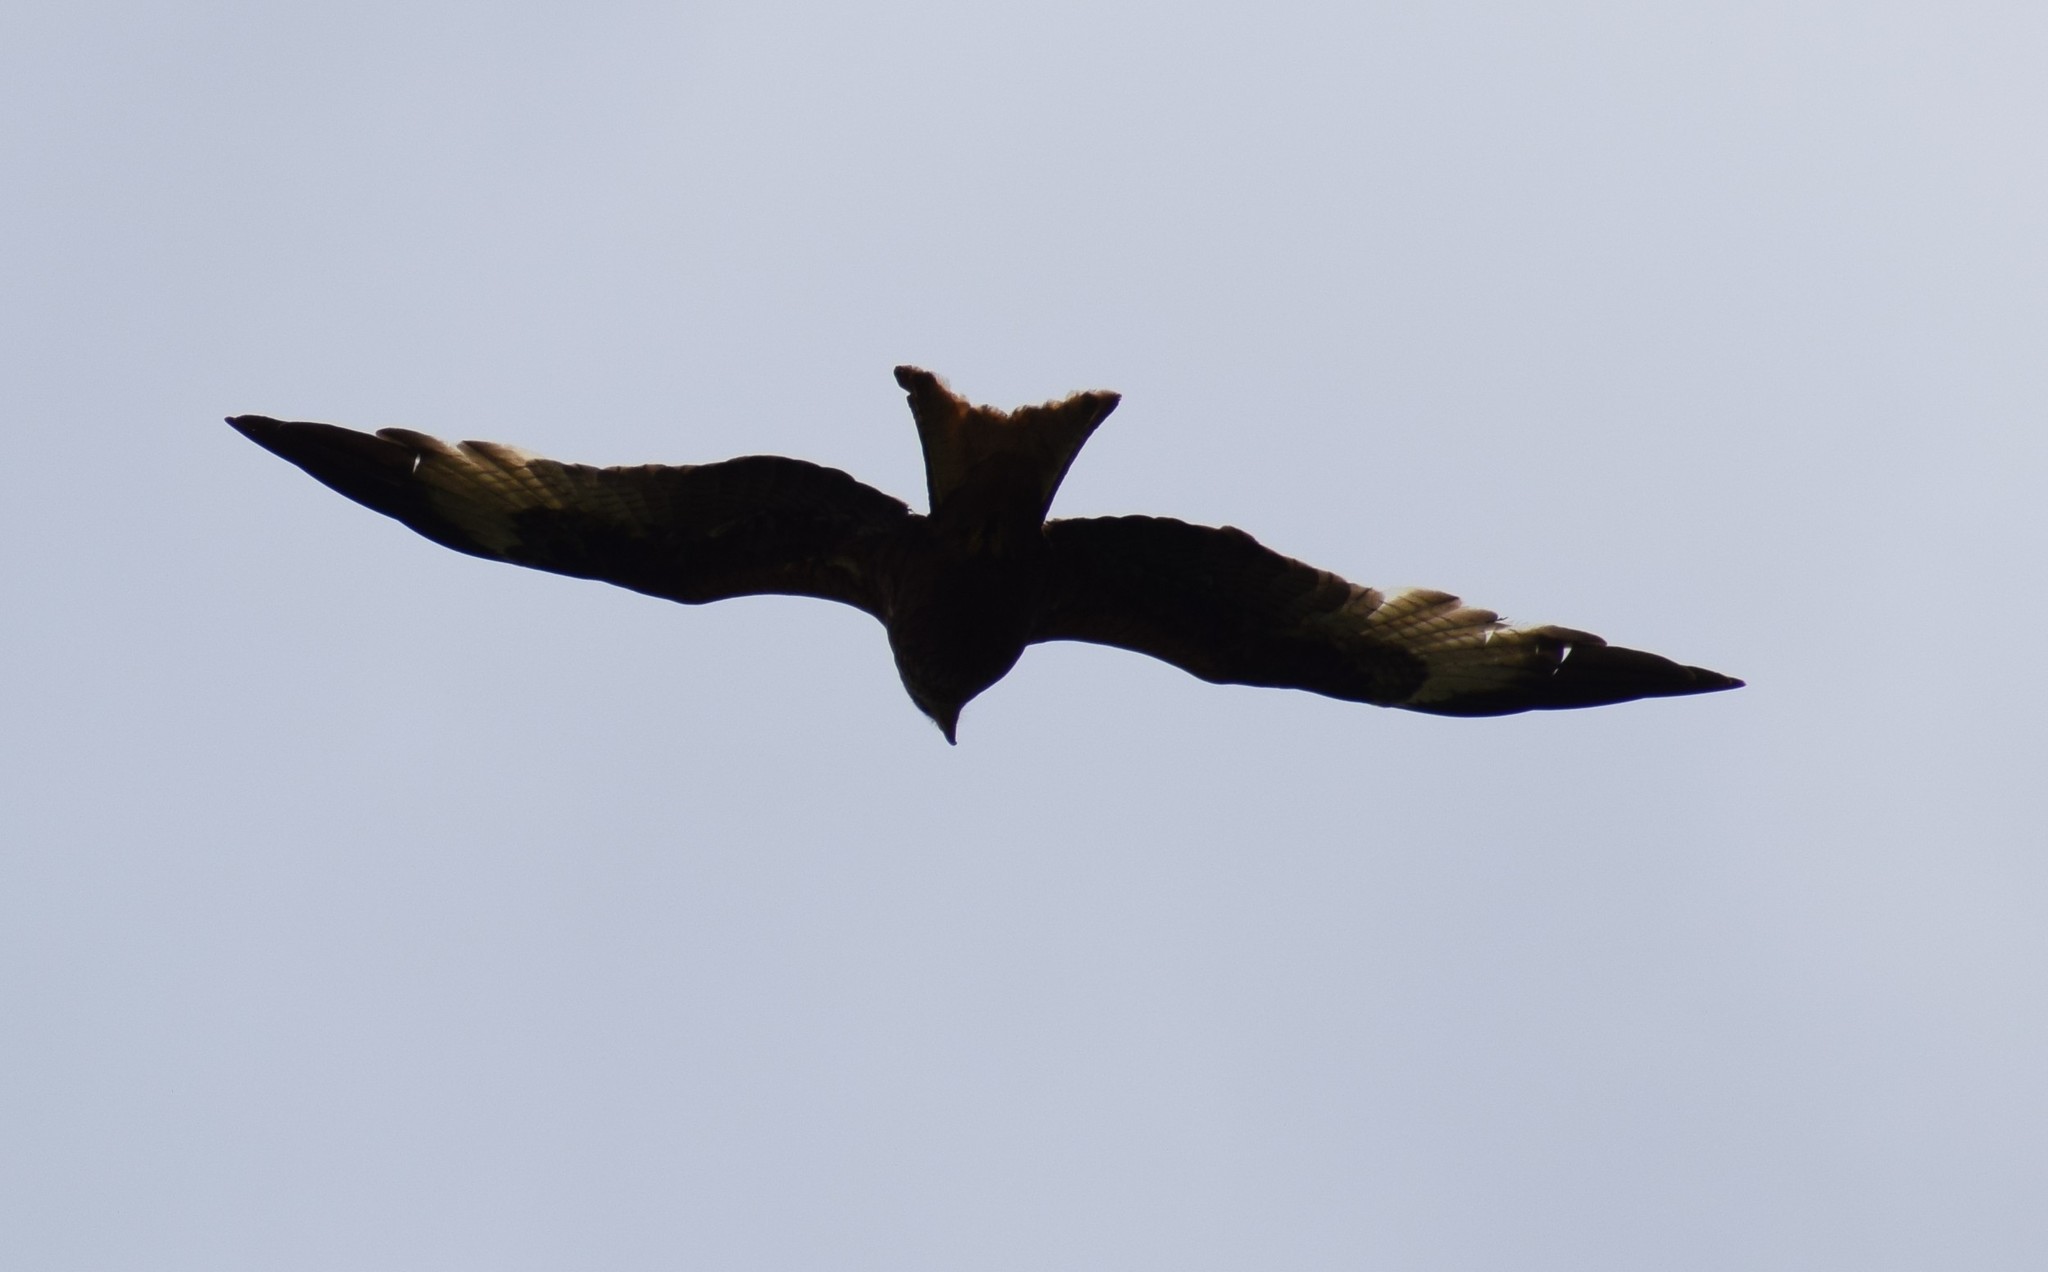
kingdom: Animalia
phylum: Chordata
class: Aves
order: Accipitriformes
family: Accipitridae
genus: Milvus
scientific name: Milvus milvus
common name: Red kite
